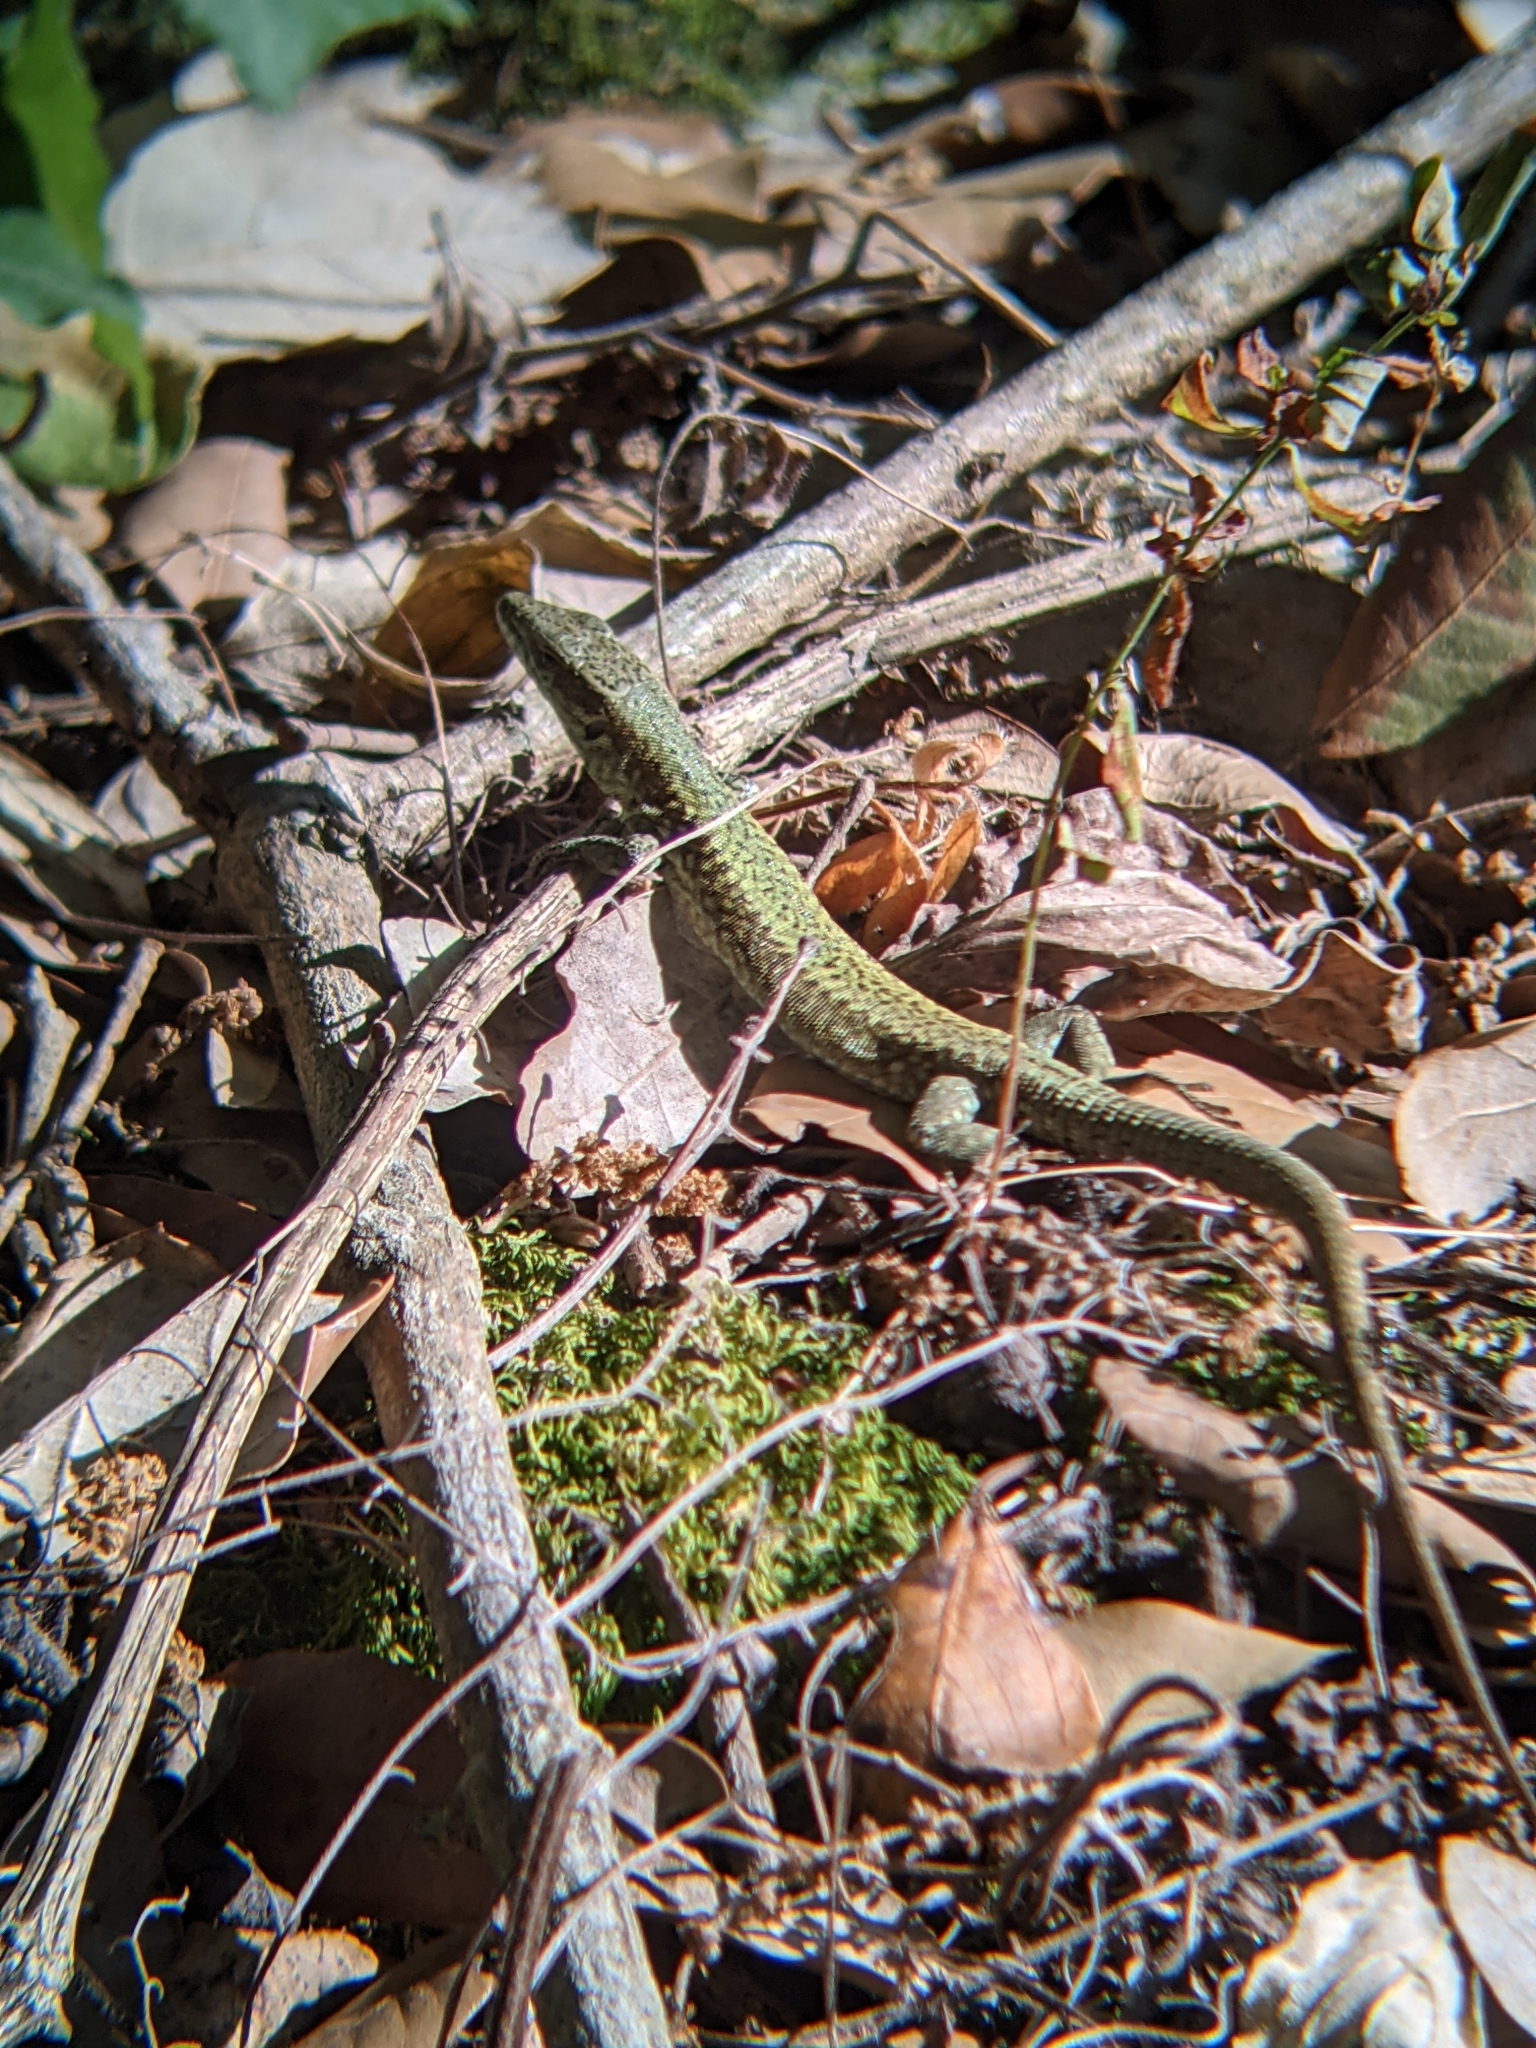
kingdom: Animalia
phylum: Chordata
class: Squamata
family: Lacertidae
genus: Podarcis
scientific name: Podarcis muralis
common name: Common wall lizard
